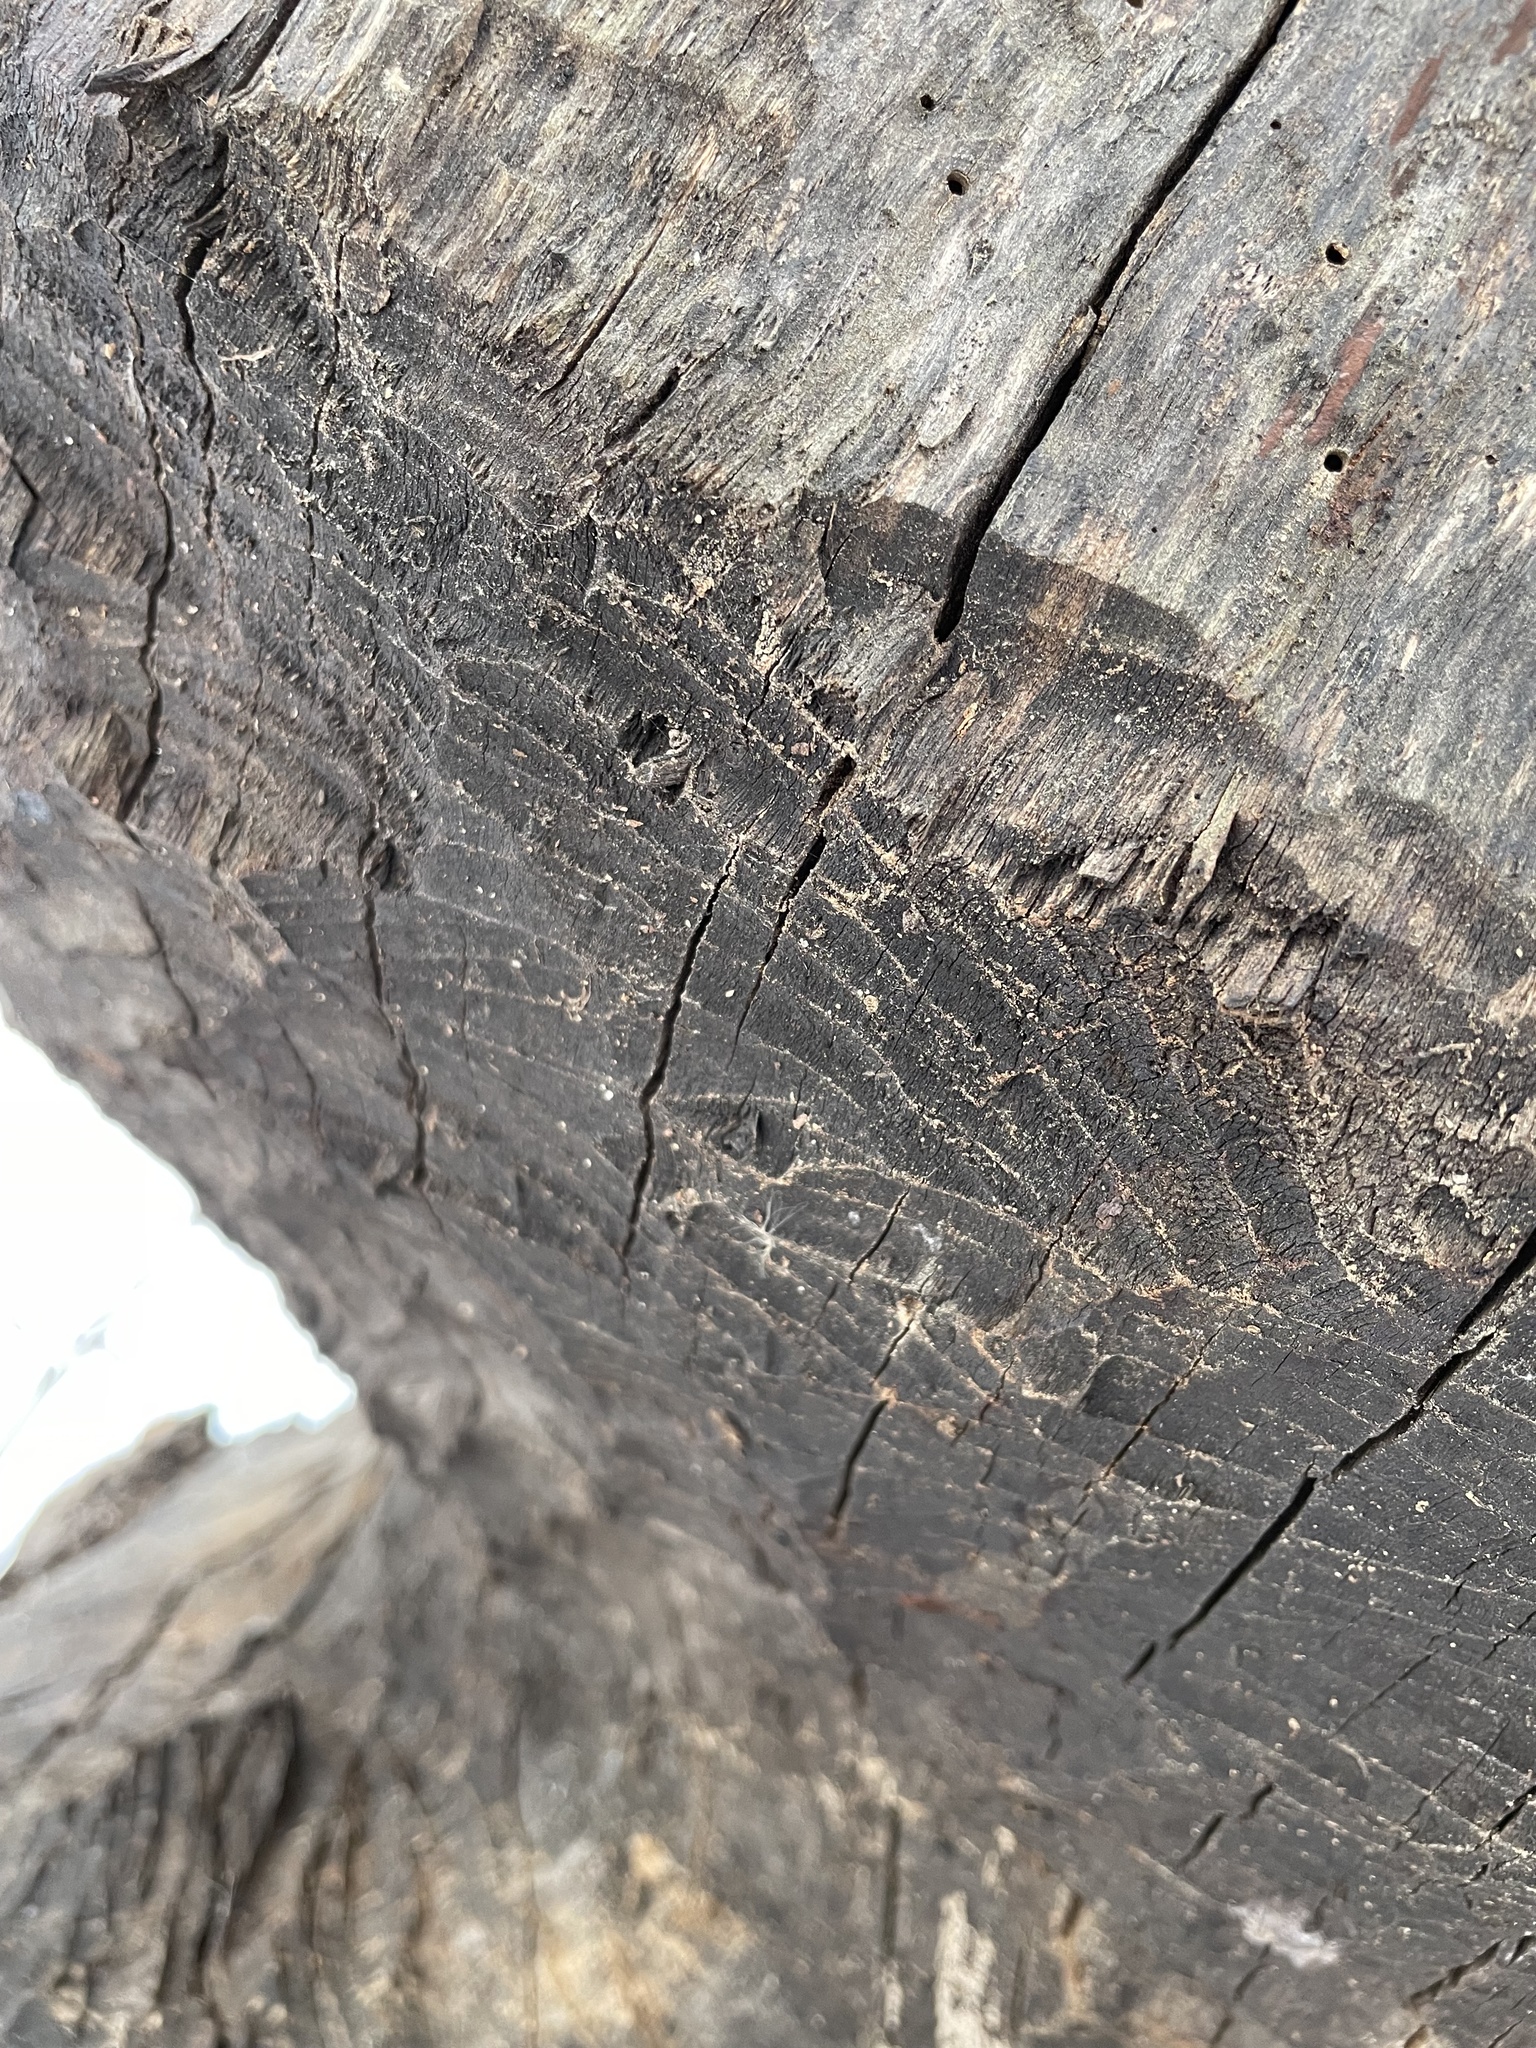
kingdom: Animalia
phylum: Chordata
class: Mammalia
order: Rodentia
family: Castoridae
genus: Castor
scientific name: Castor canadensis
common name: American beaver
